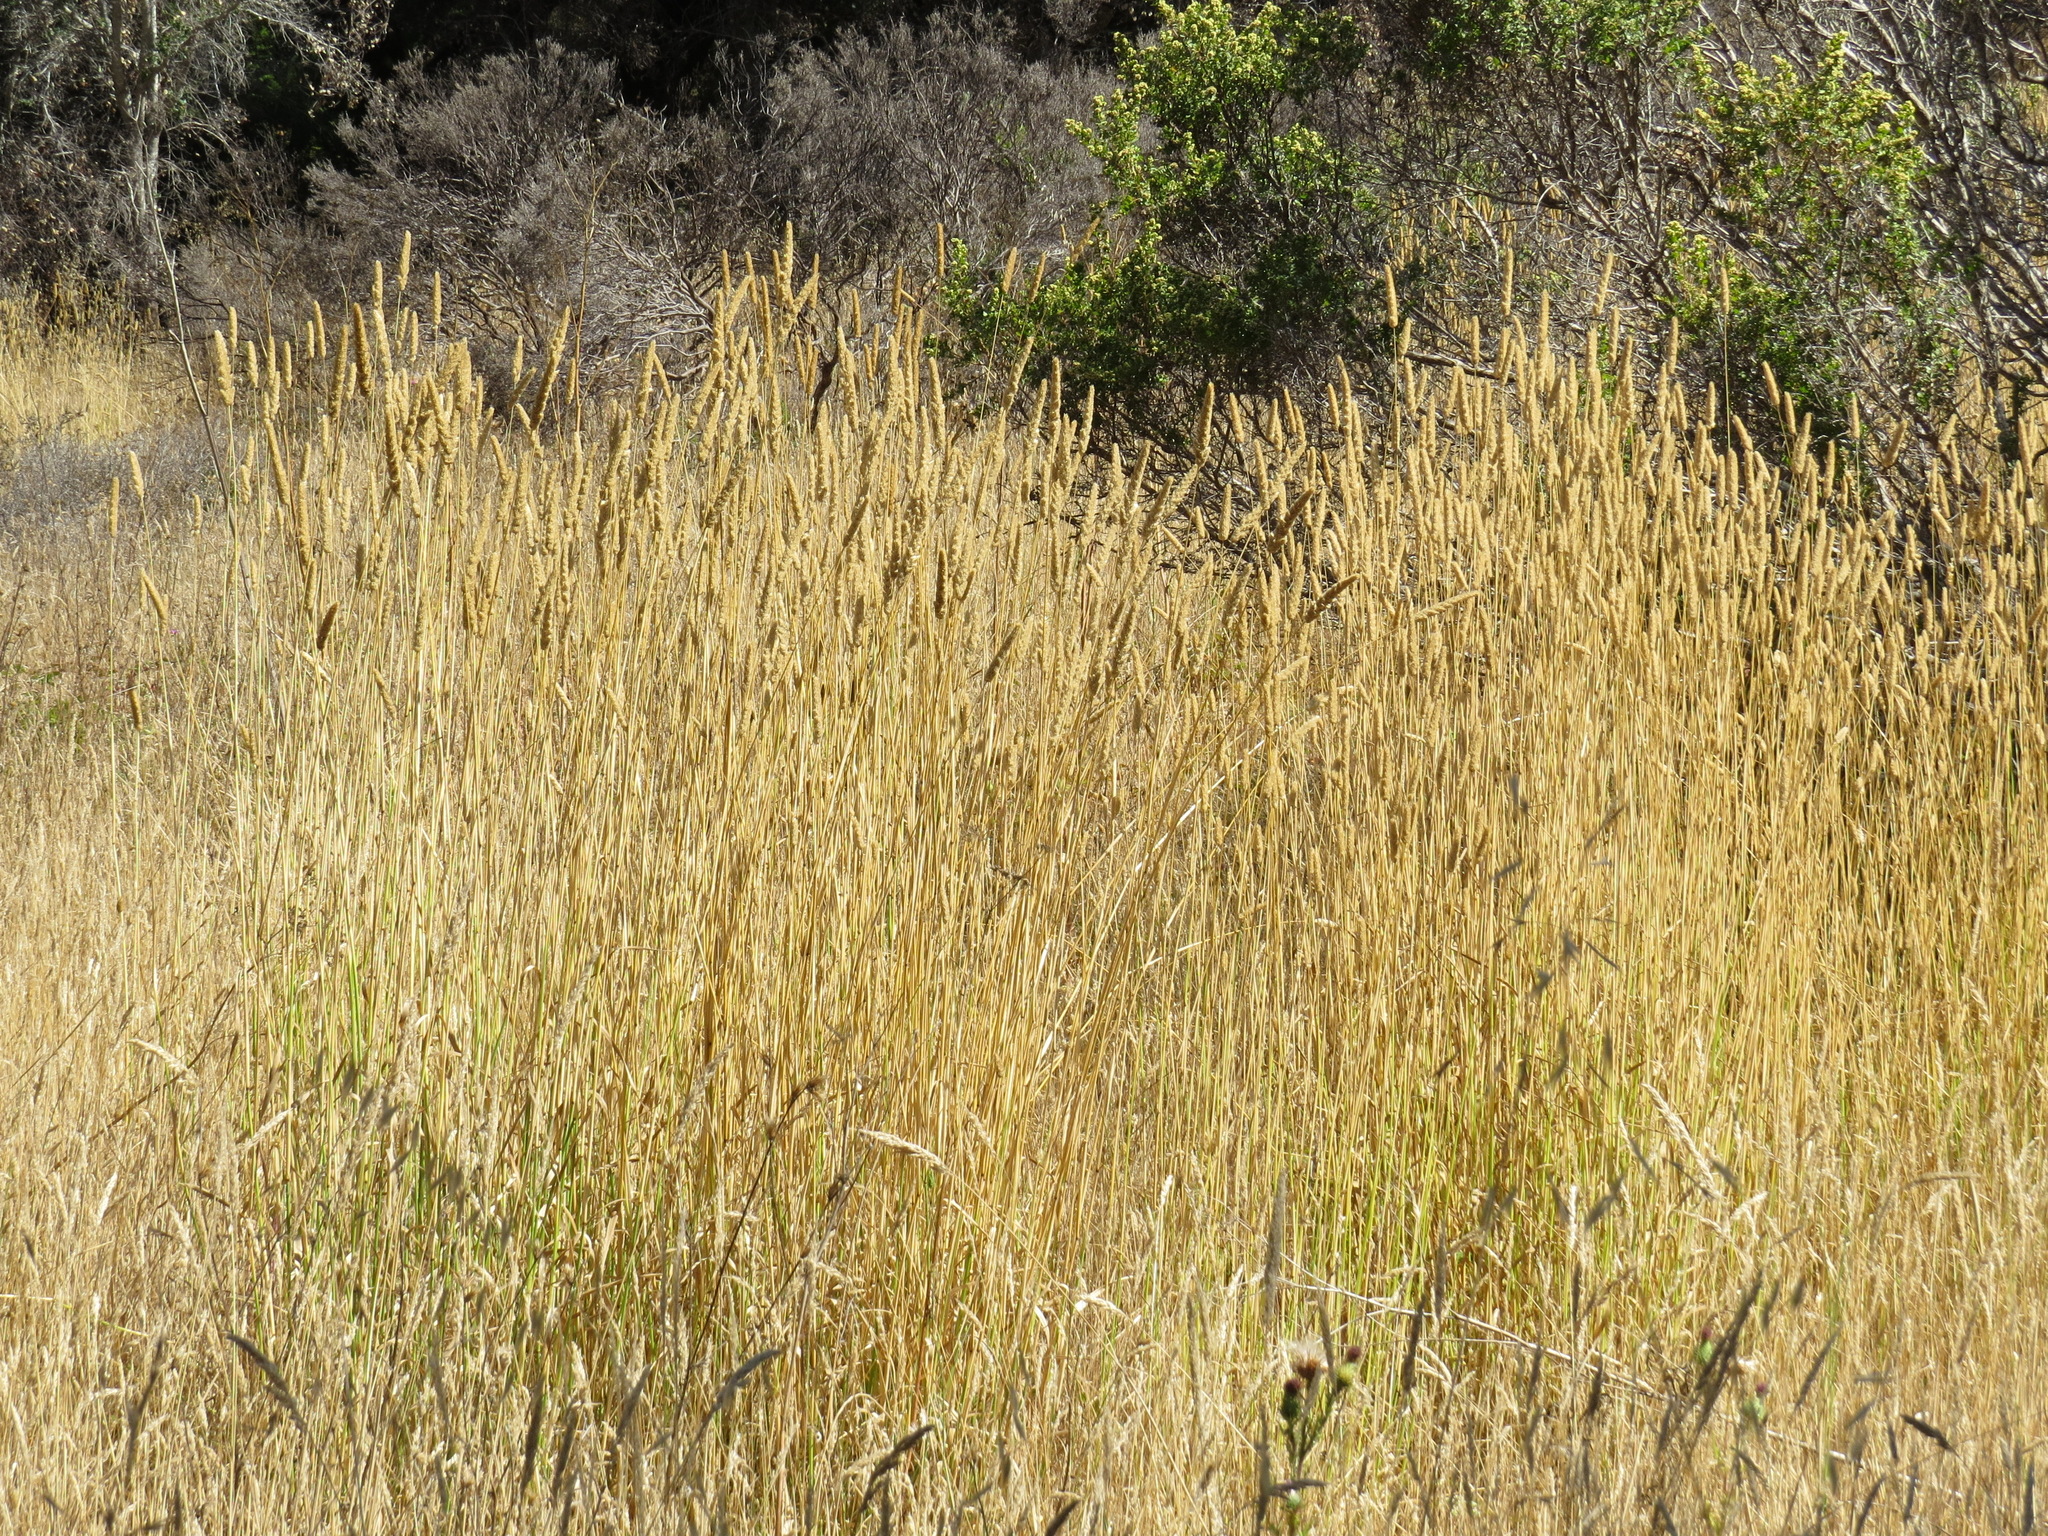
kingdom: Plantae
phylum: Tracheophyta
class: Liliopsida
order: Poales
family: Poaceae
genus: Phalaris
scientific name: Phalaris aquatica
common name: Bulbous canary-grass
